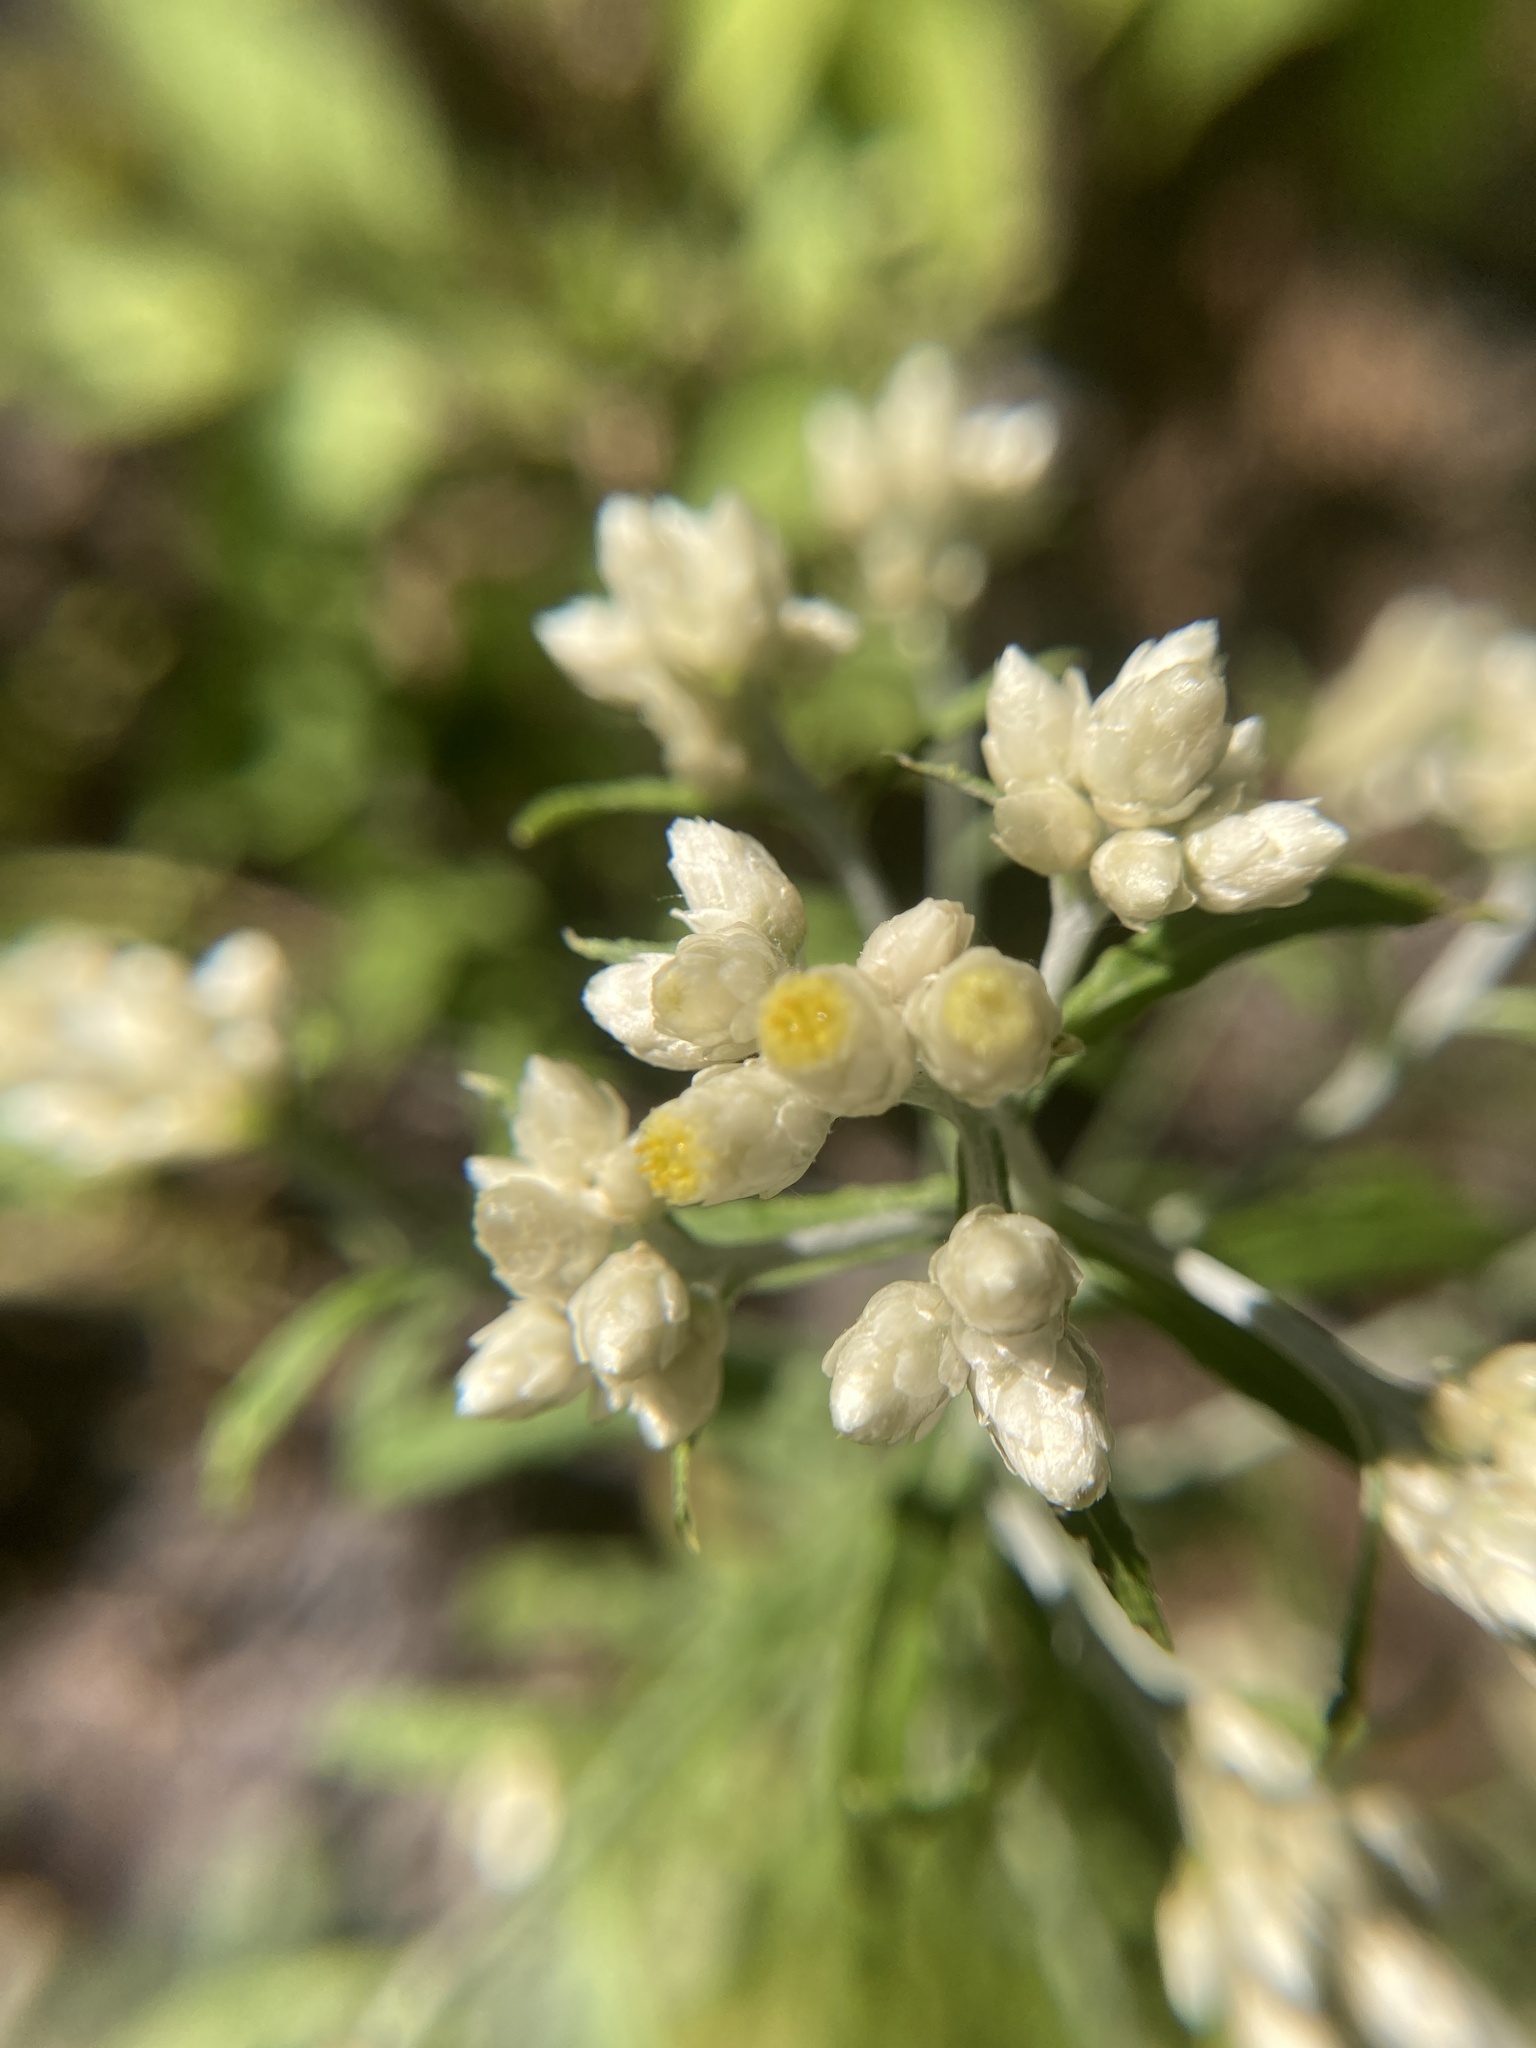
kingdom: Plantae
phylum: Tracheophyta
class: Magnoliopsida
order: Asterales
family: Asteraceae
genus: Pseudognaphalium
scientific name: Pseudognaphalium obtusifolium
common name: Eastern rabbit-tobacco
